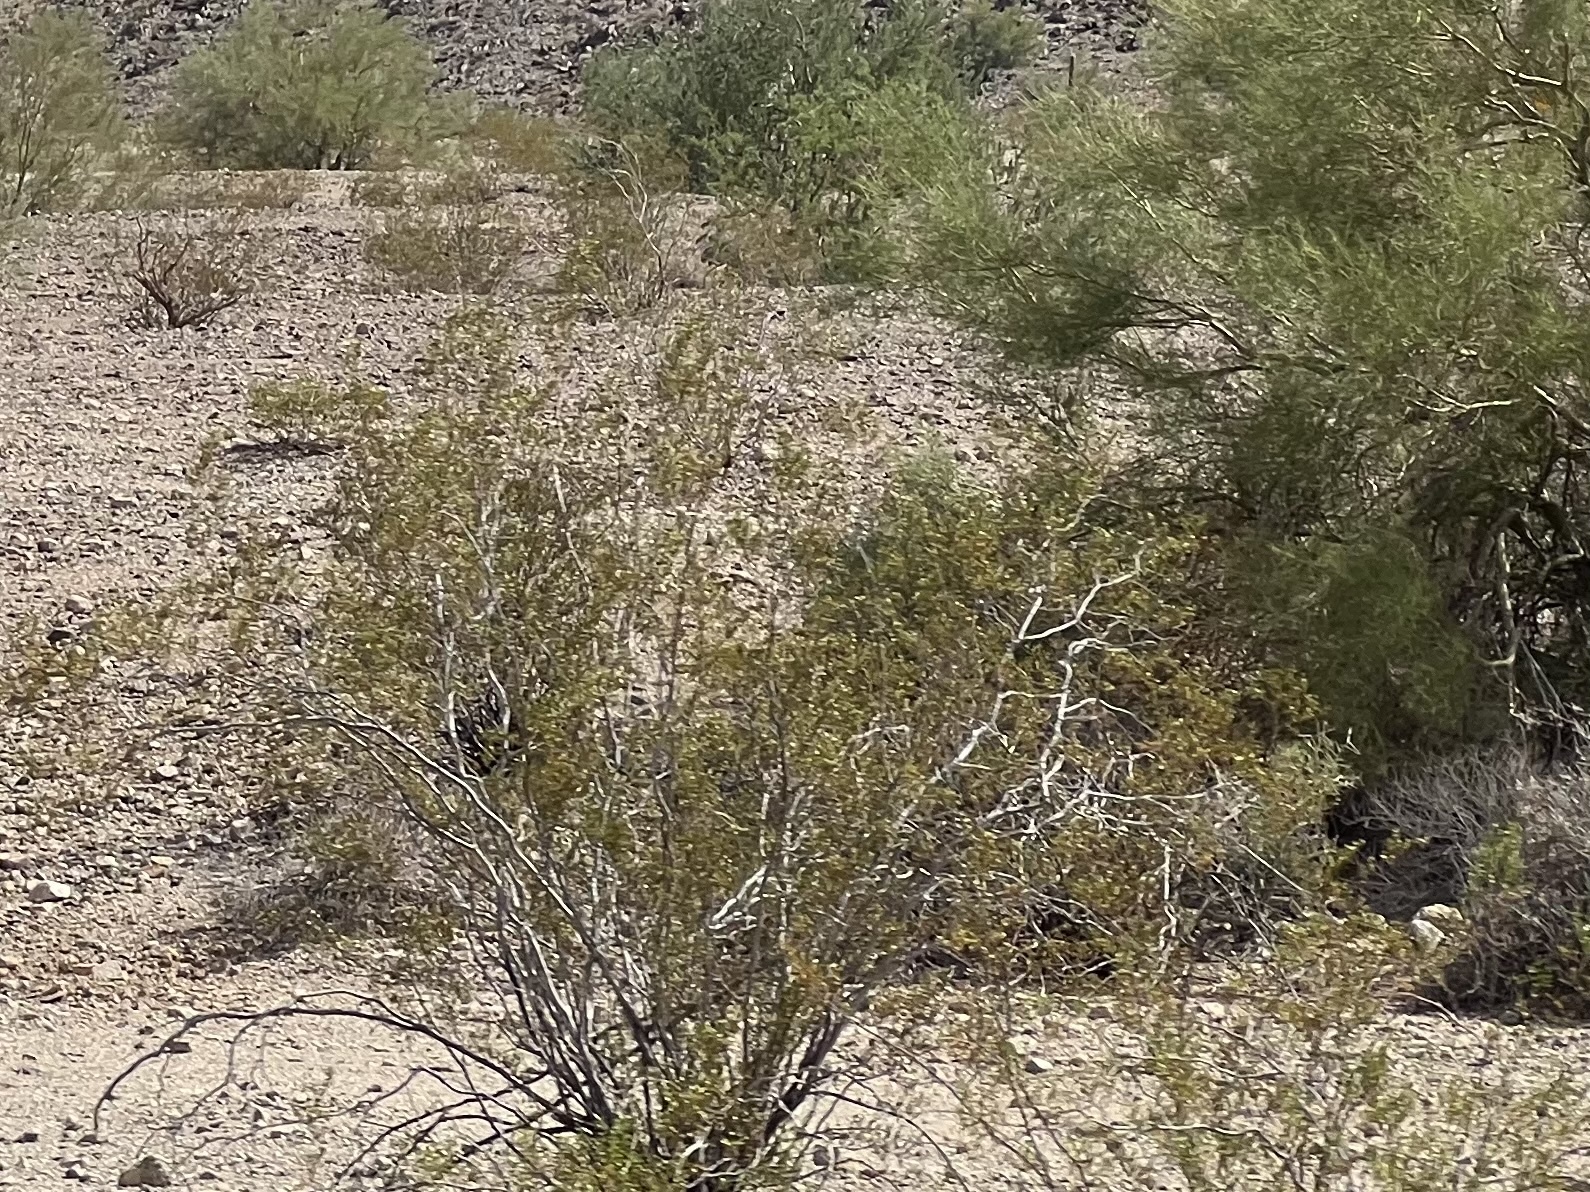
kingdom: Plantae
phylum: Tracheophyta
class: Magnoliopsida
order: Zygophyllales
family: Zygophyllaceae
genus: Larrea
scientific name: Larrea tridentata
